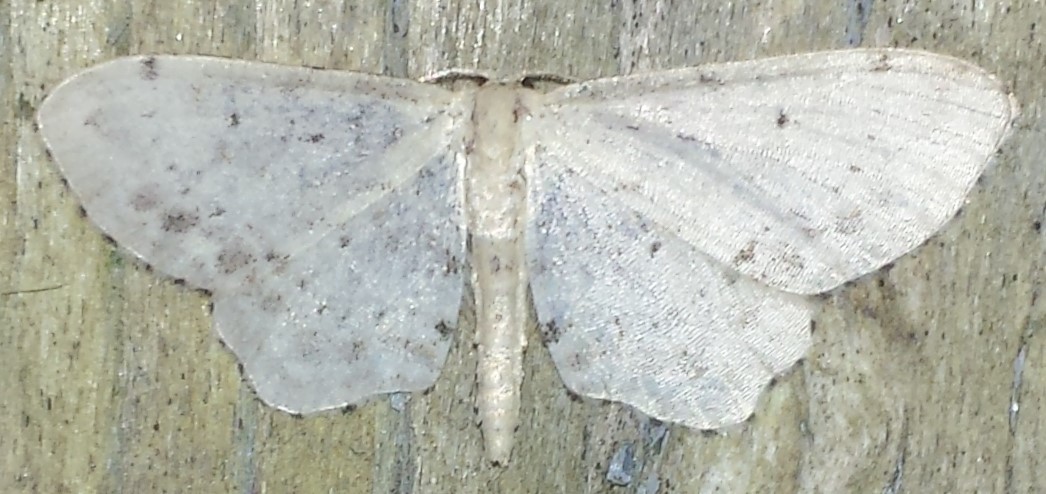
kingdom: Animalia
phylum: Arthropoda
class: Insecta
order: Lepidoptera
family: Geometridae
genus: Idaea
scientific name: Idaea dimidiata
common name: Single-dotted wave
